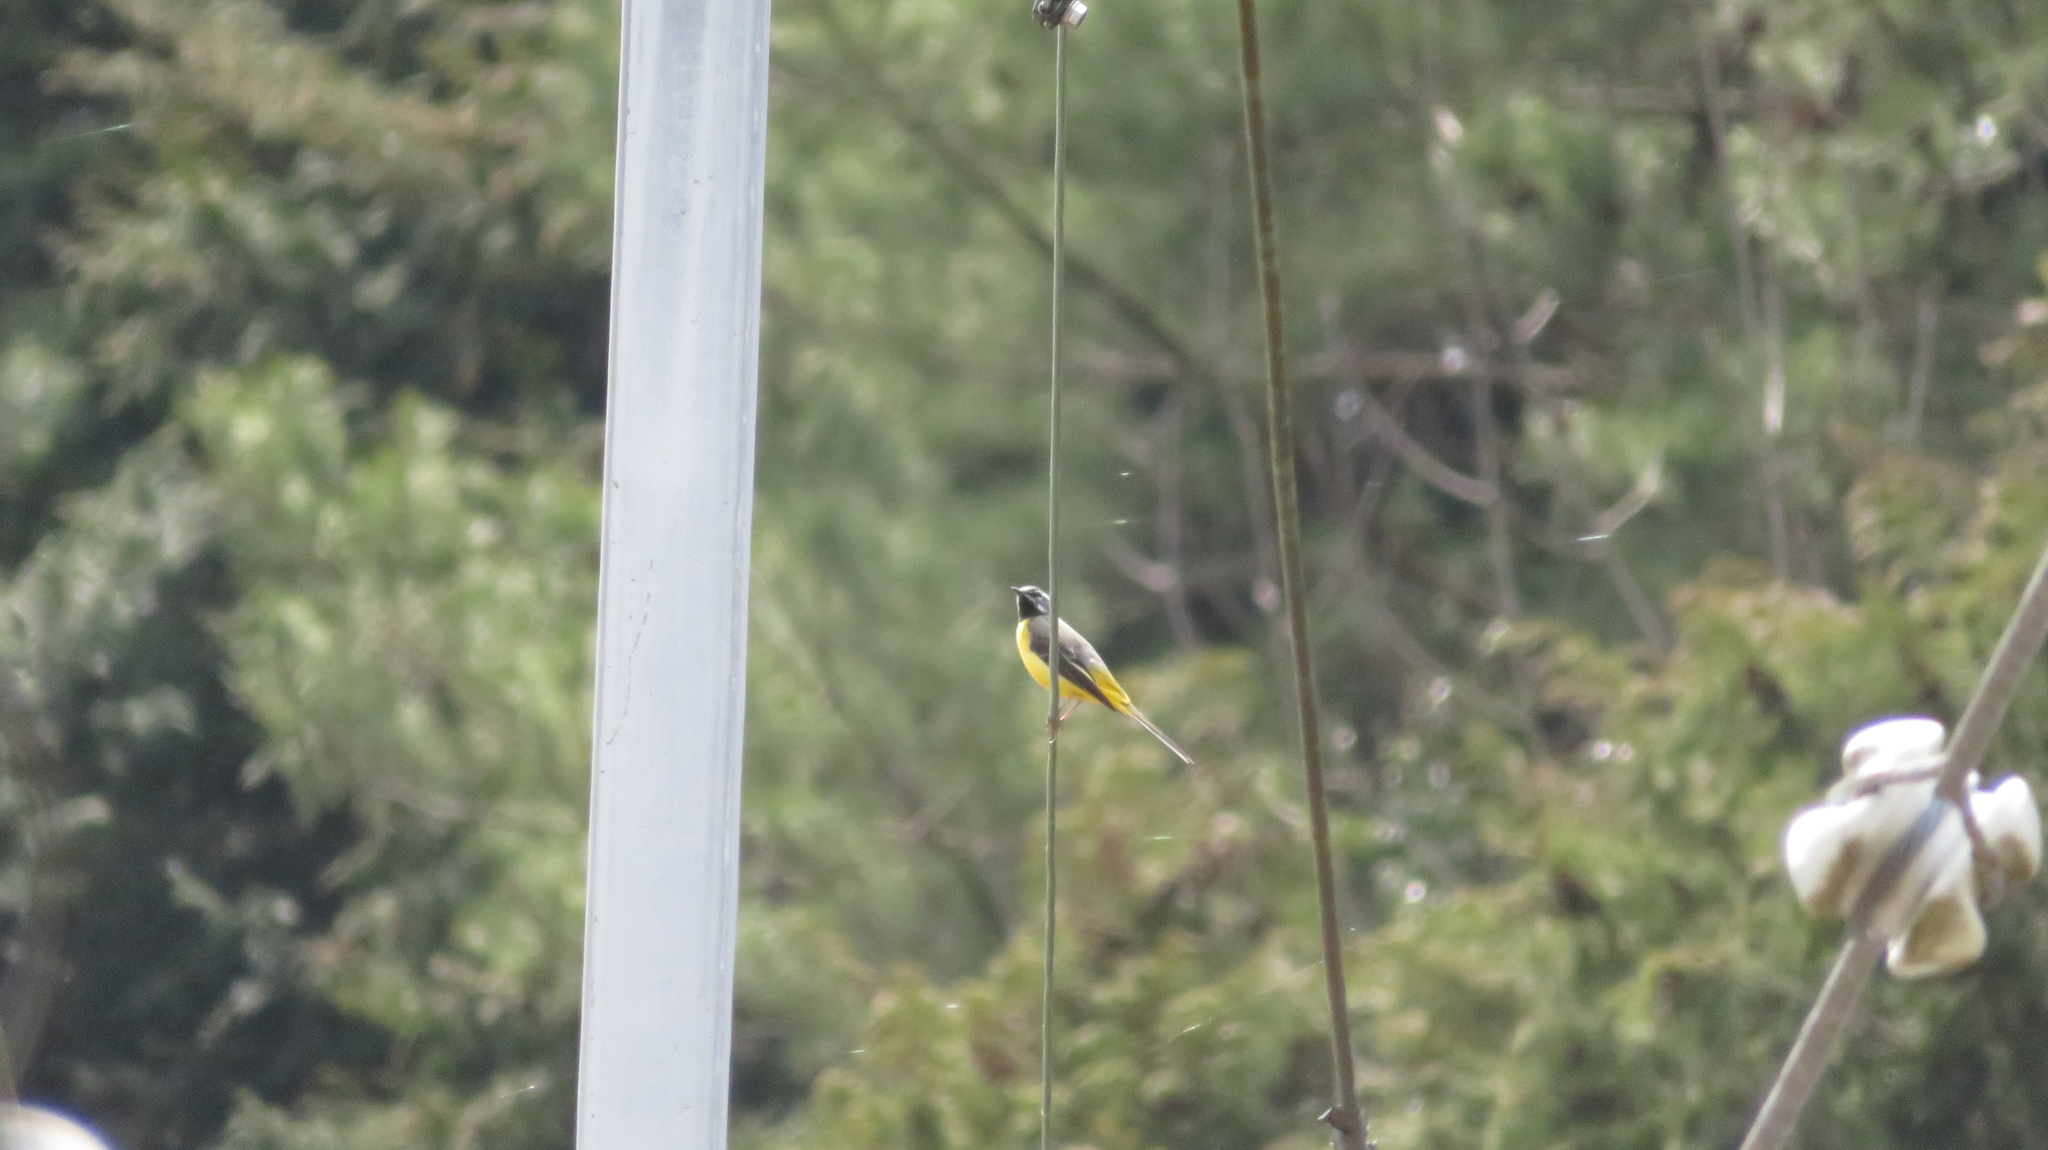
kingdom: Animalia
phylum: Chordata
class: Aves
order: Passeriformes
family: Motacillidae
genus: Motacilla
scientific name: Motacilla cinerea
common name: Grey wagtail
